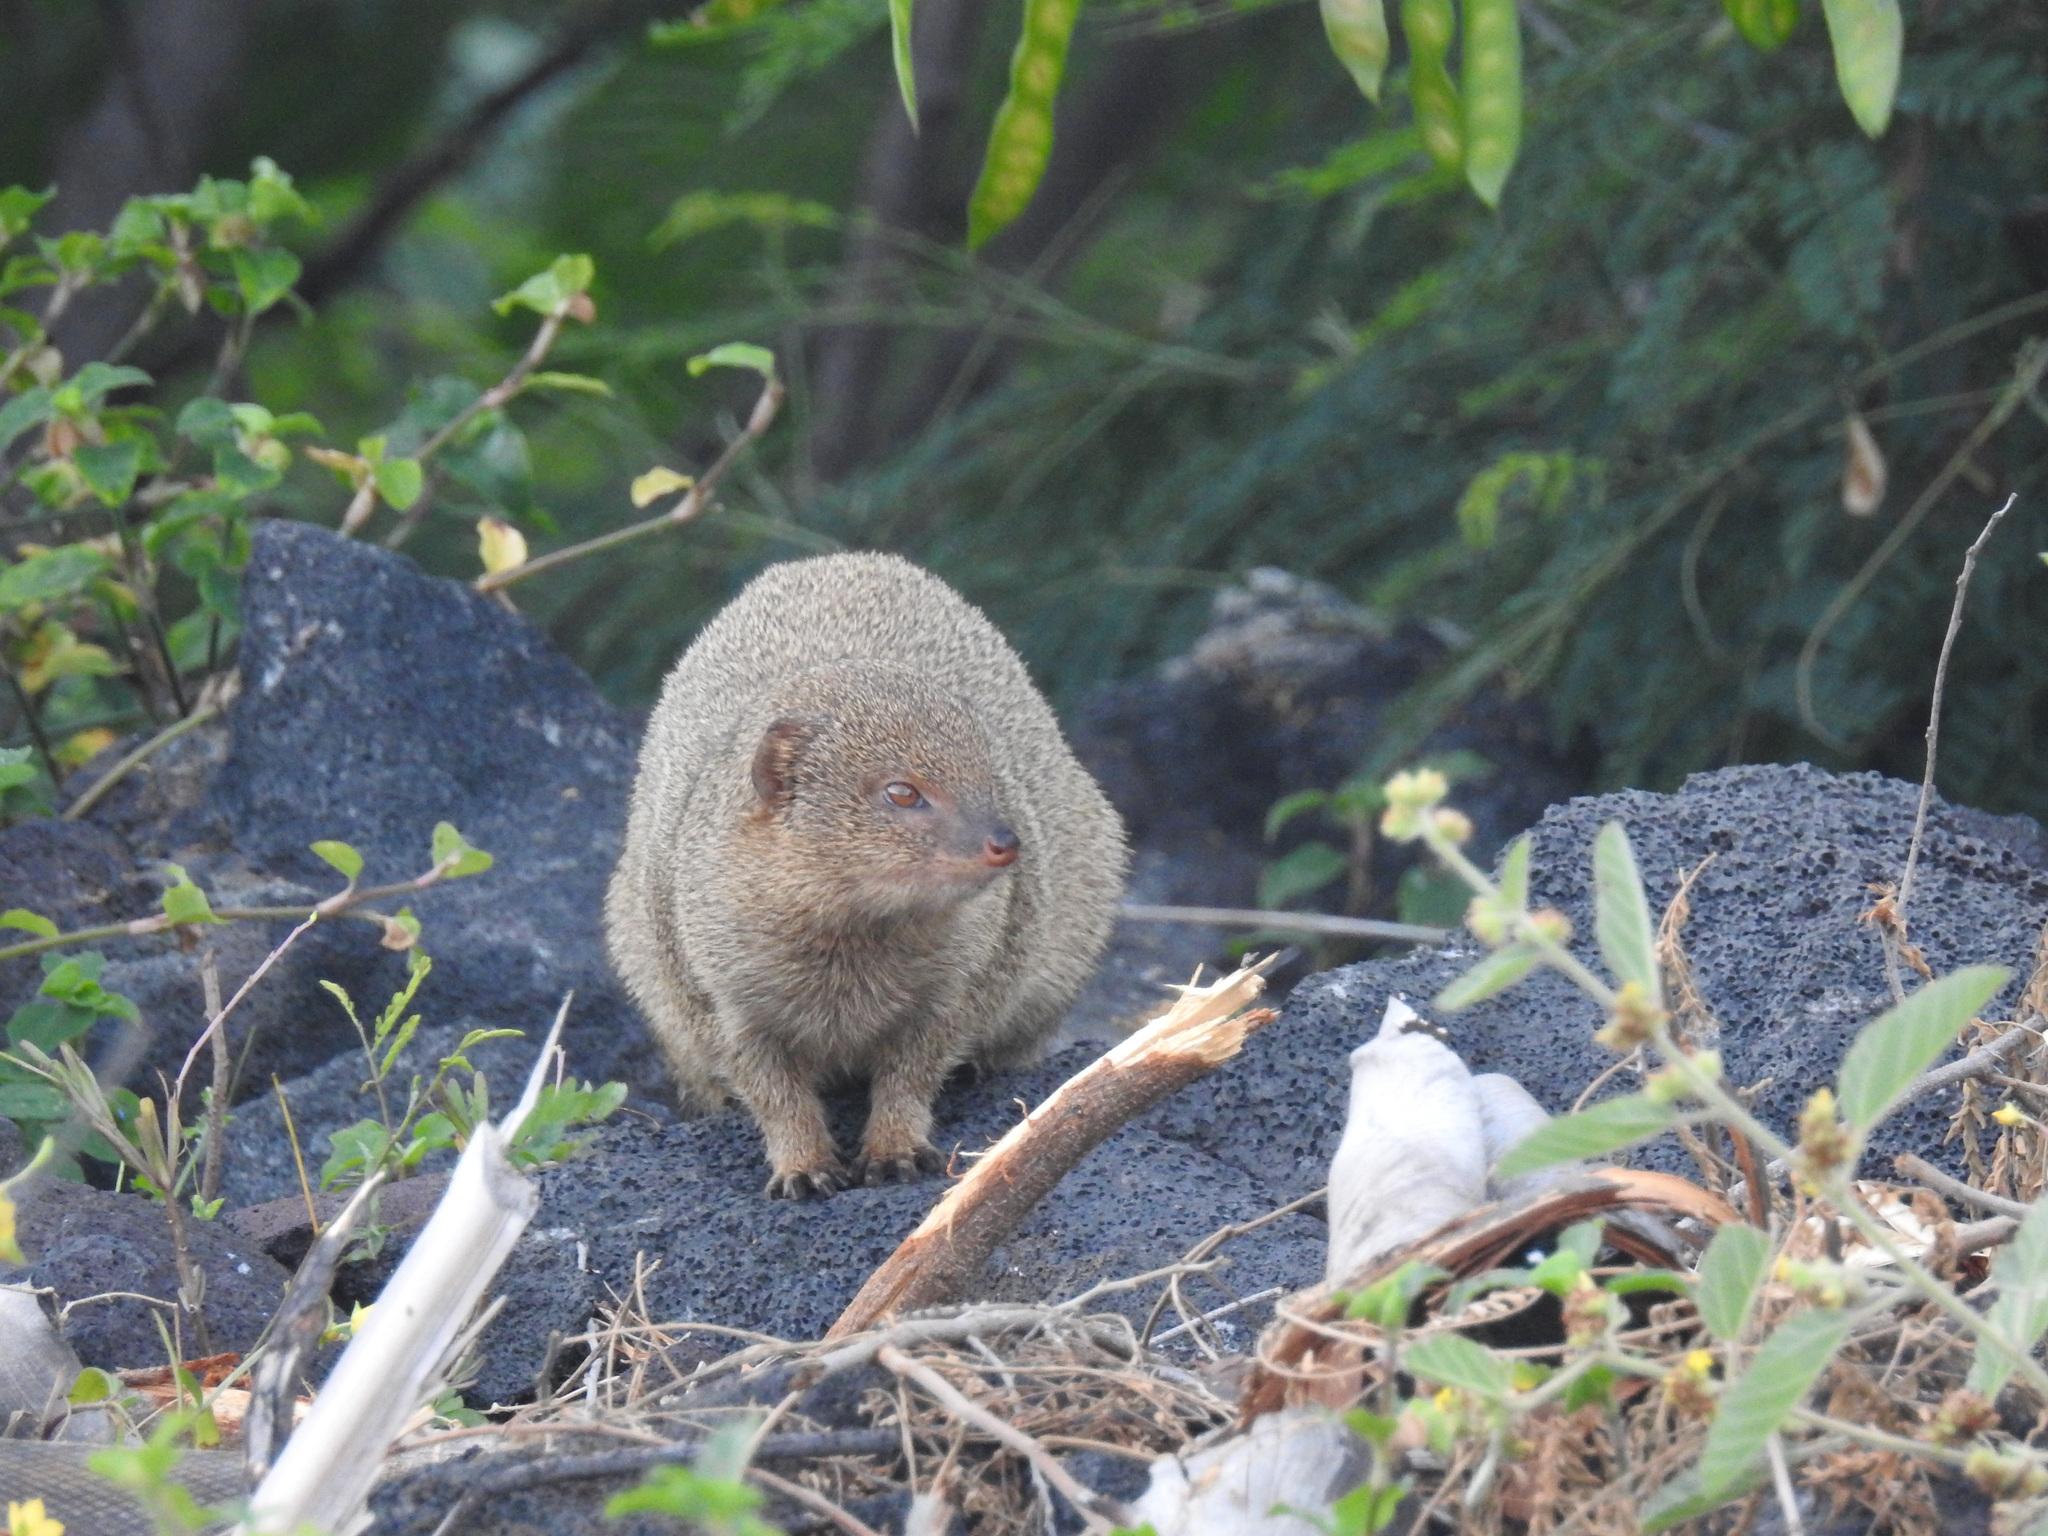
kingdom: Animalia
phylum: Chordata
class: Mammalia
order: Carnivora
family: Herpestidae
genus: Herpestes
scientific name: Herpestes javanicus
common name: Small asian mongoose
